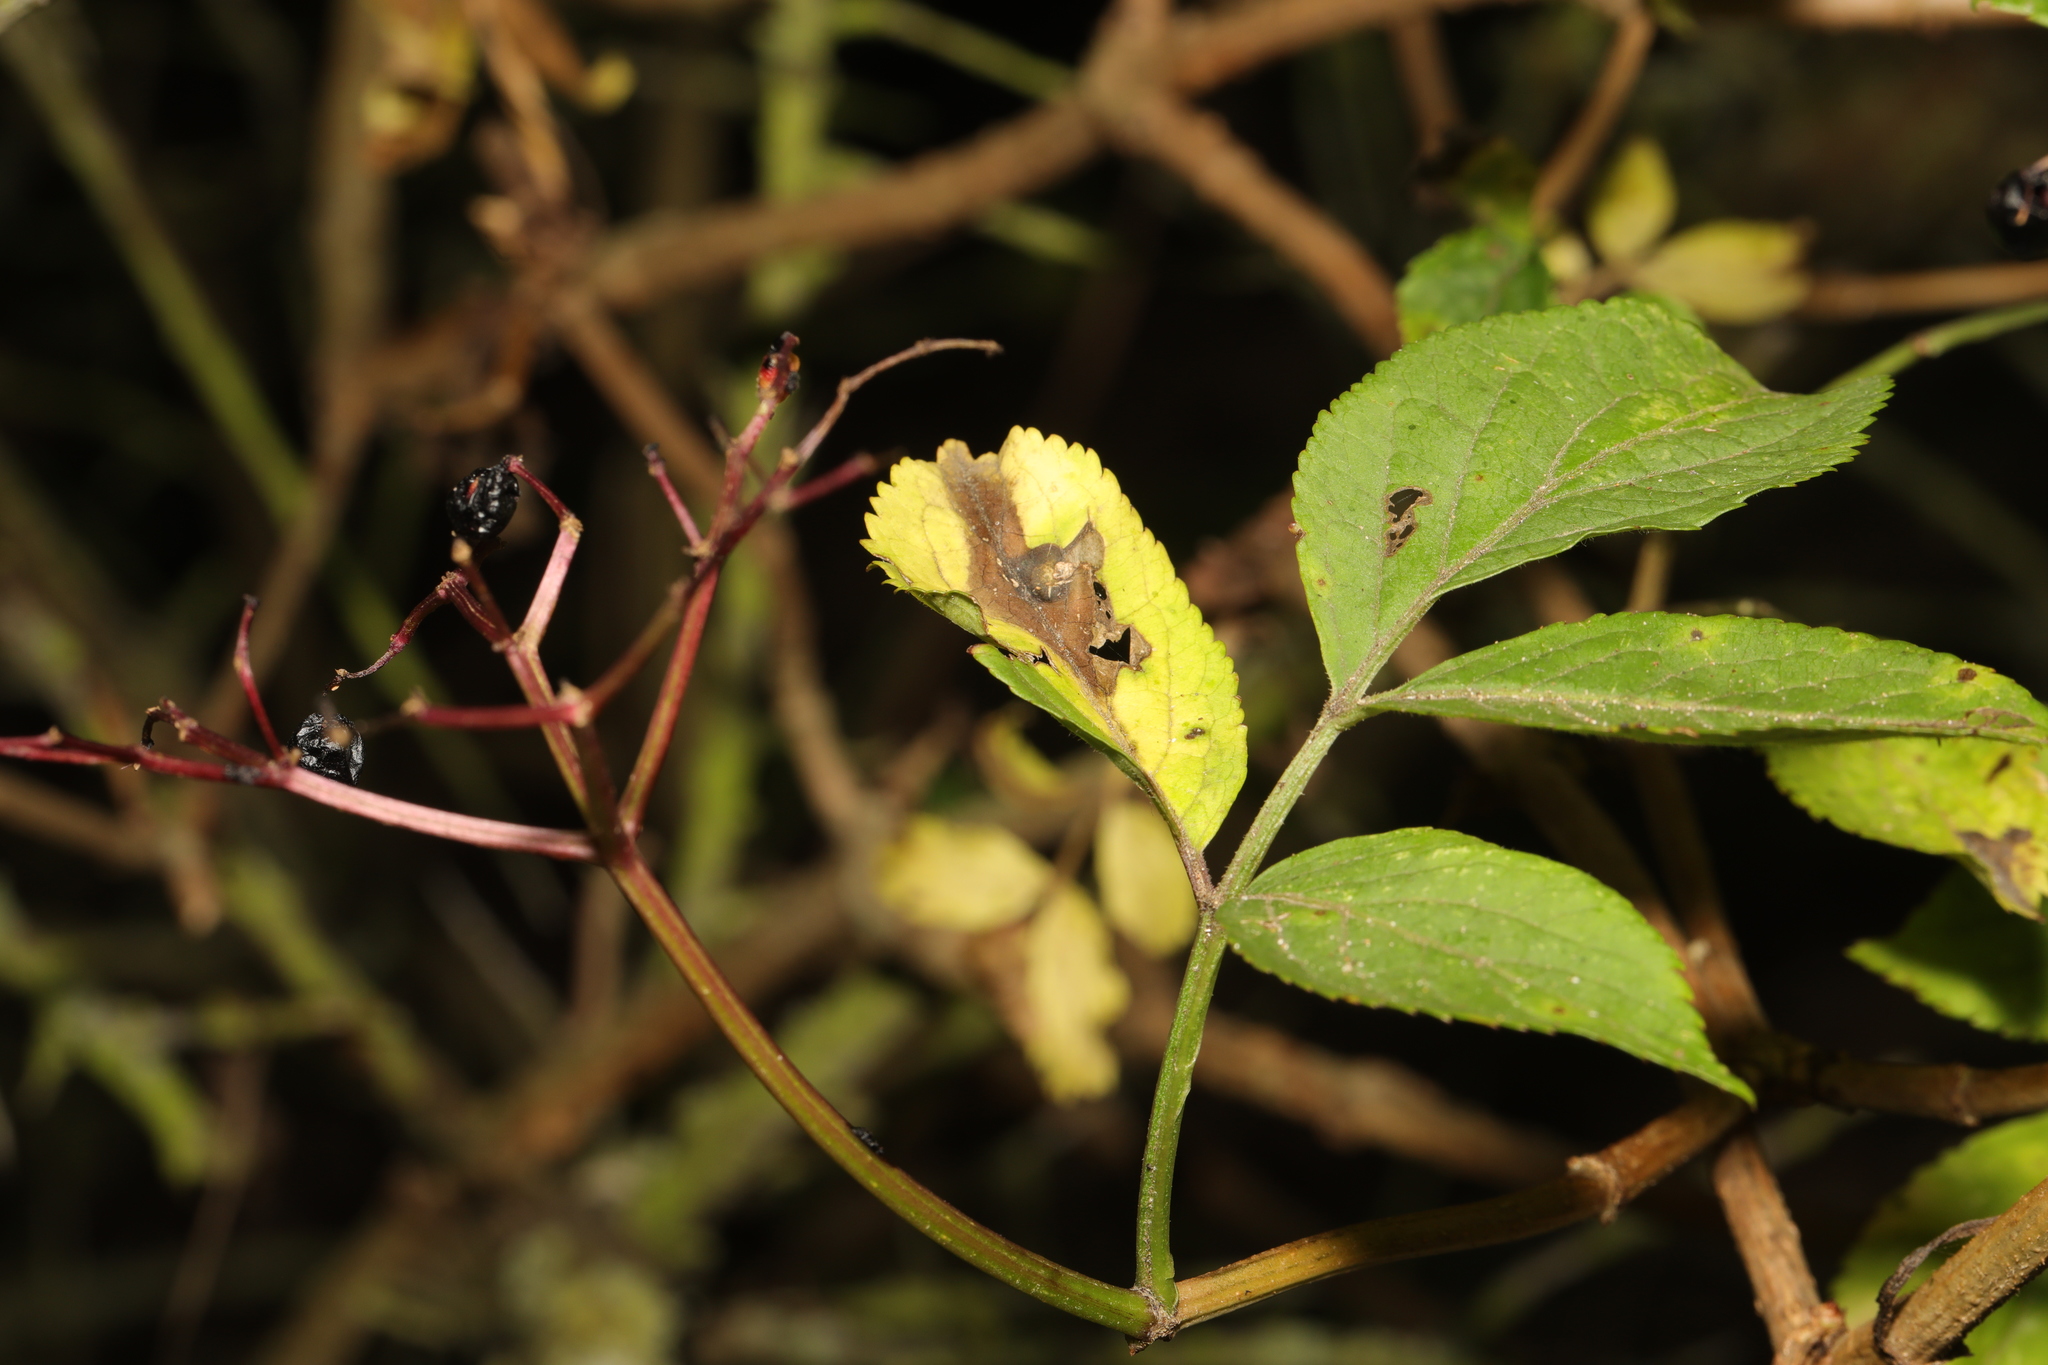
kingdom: Plantae
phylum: Tracheophyta
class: Magnoliopsida
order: Dipsacales
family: Viburnaceae
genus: Sambucus
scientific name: Sambucus nigra
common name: Elder
